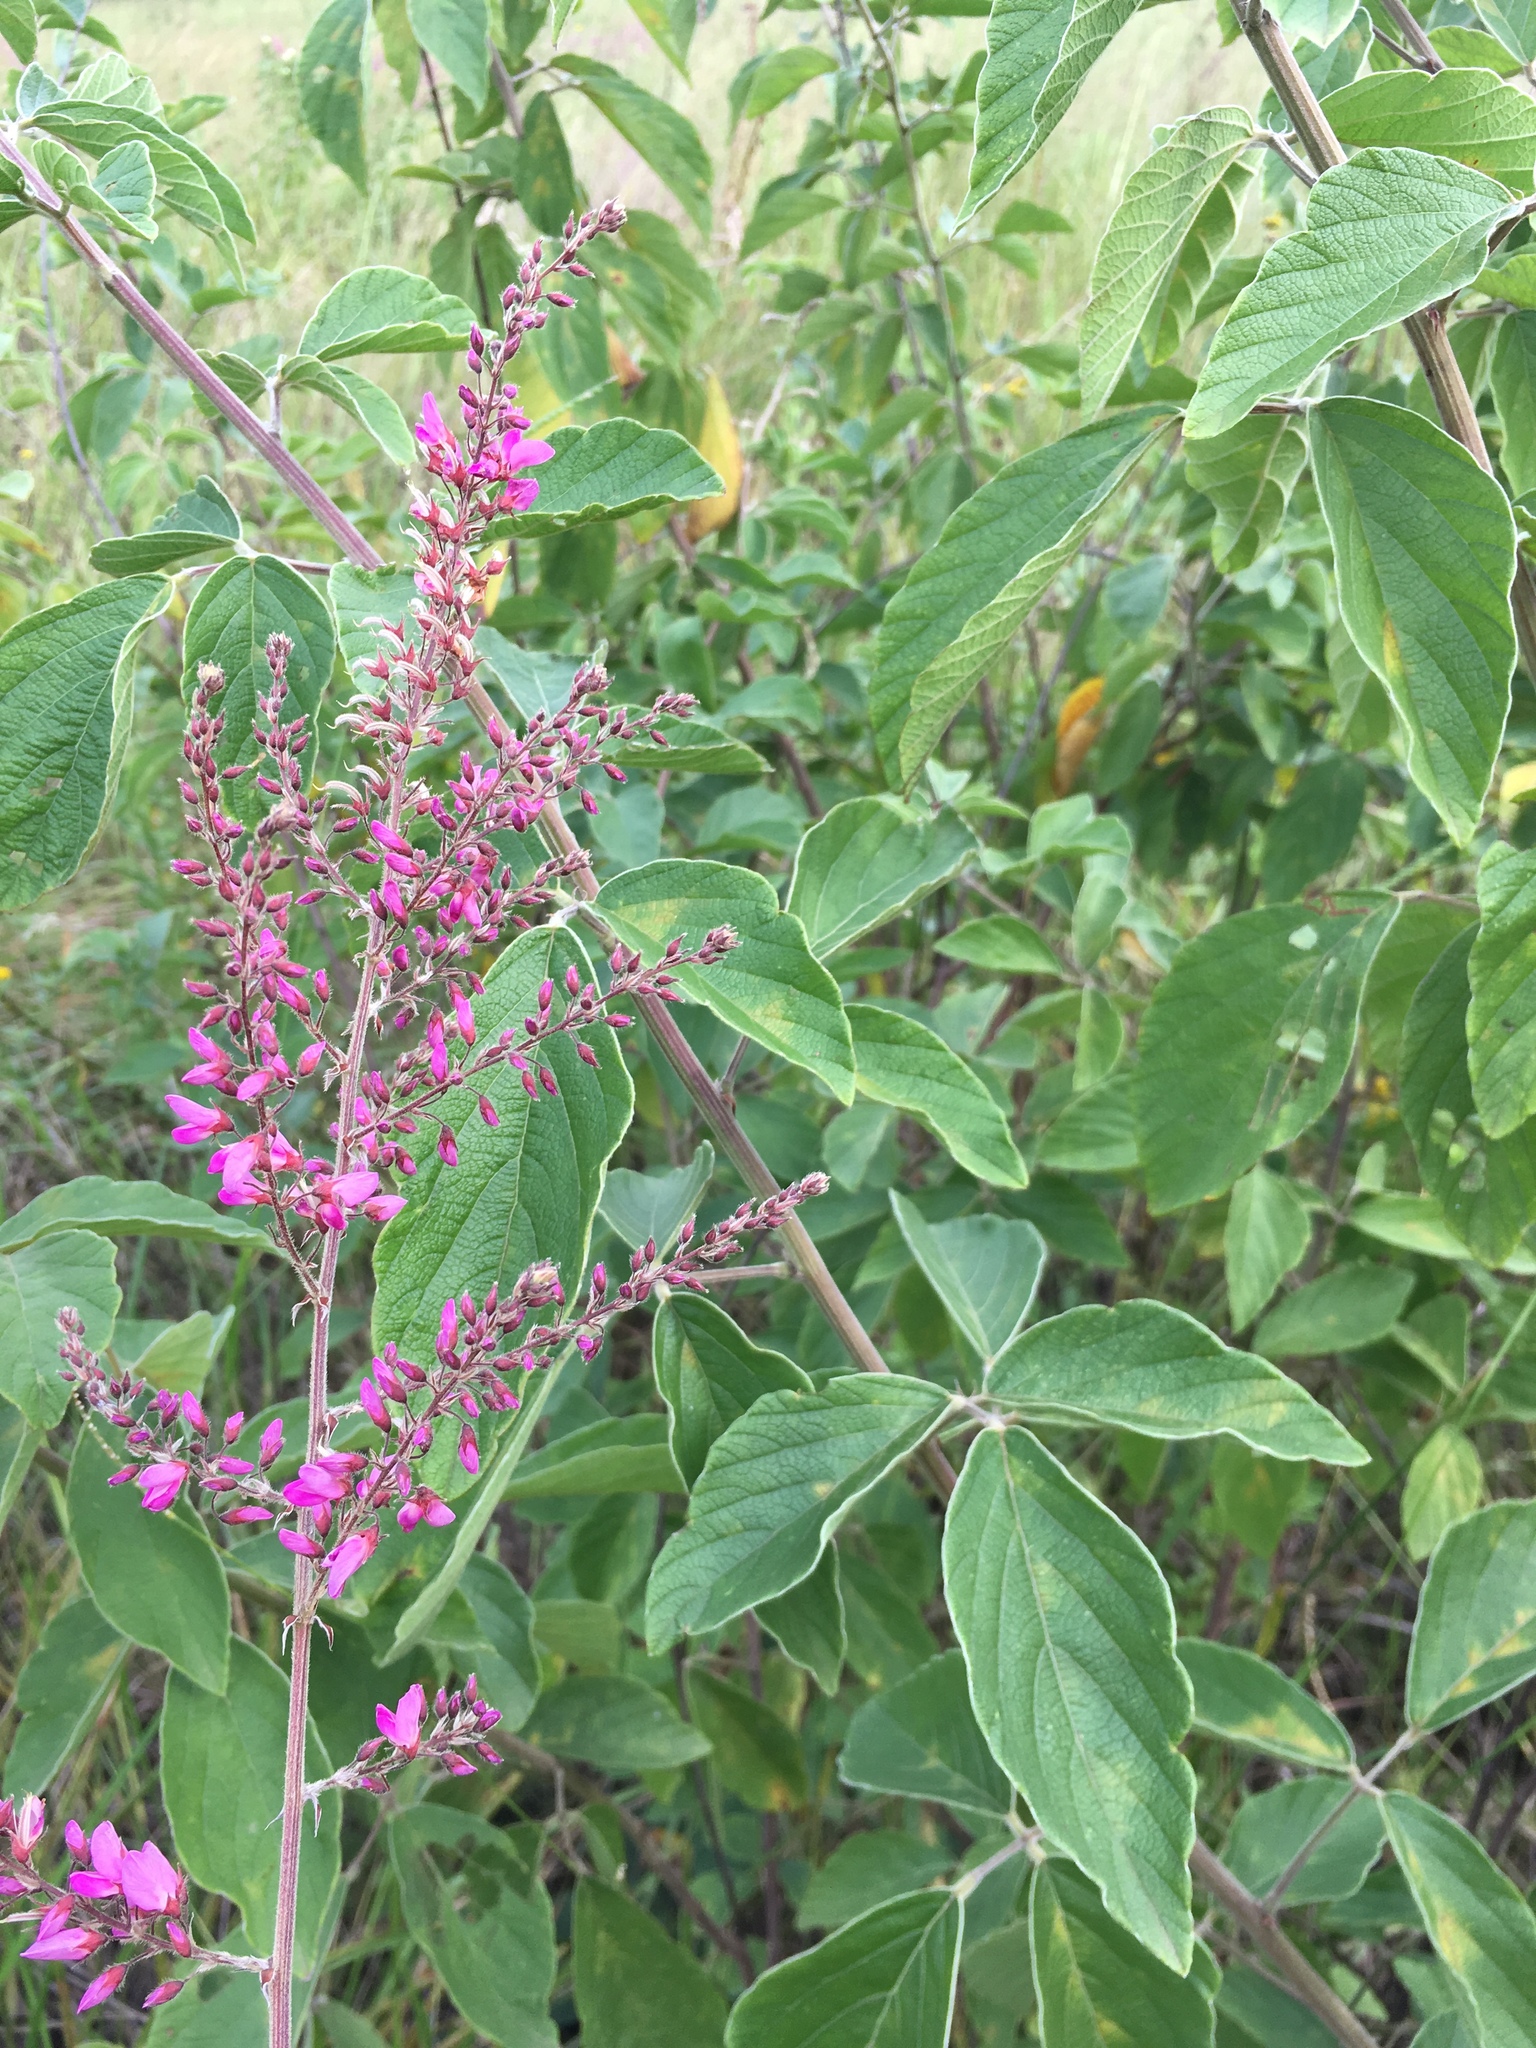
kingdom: Plantae
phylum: Tracheophyta
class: Magnoliopsida
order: Fabales
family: Fabaceae
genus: Pseudarthria
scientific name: Pseudarthria hookeri
